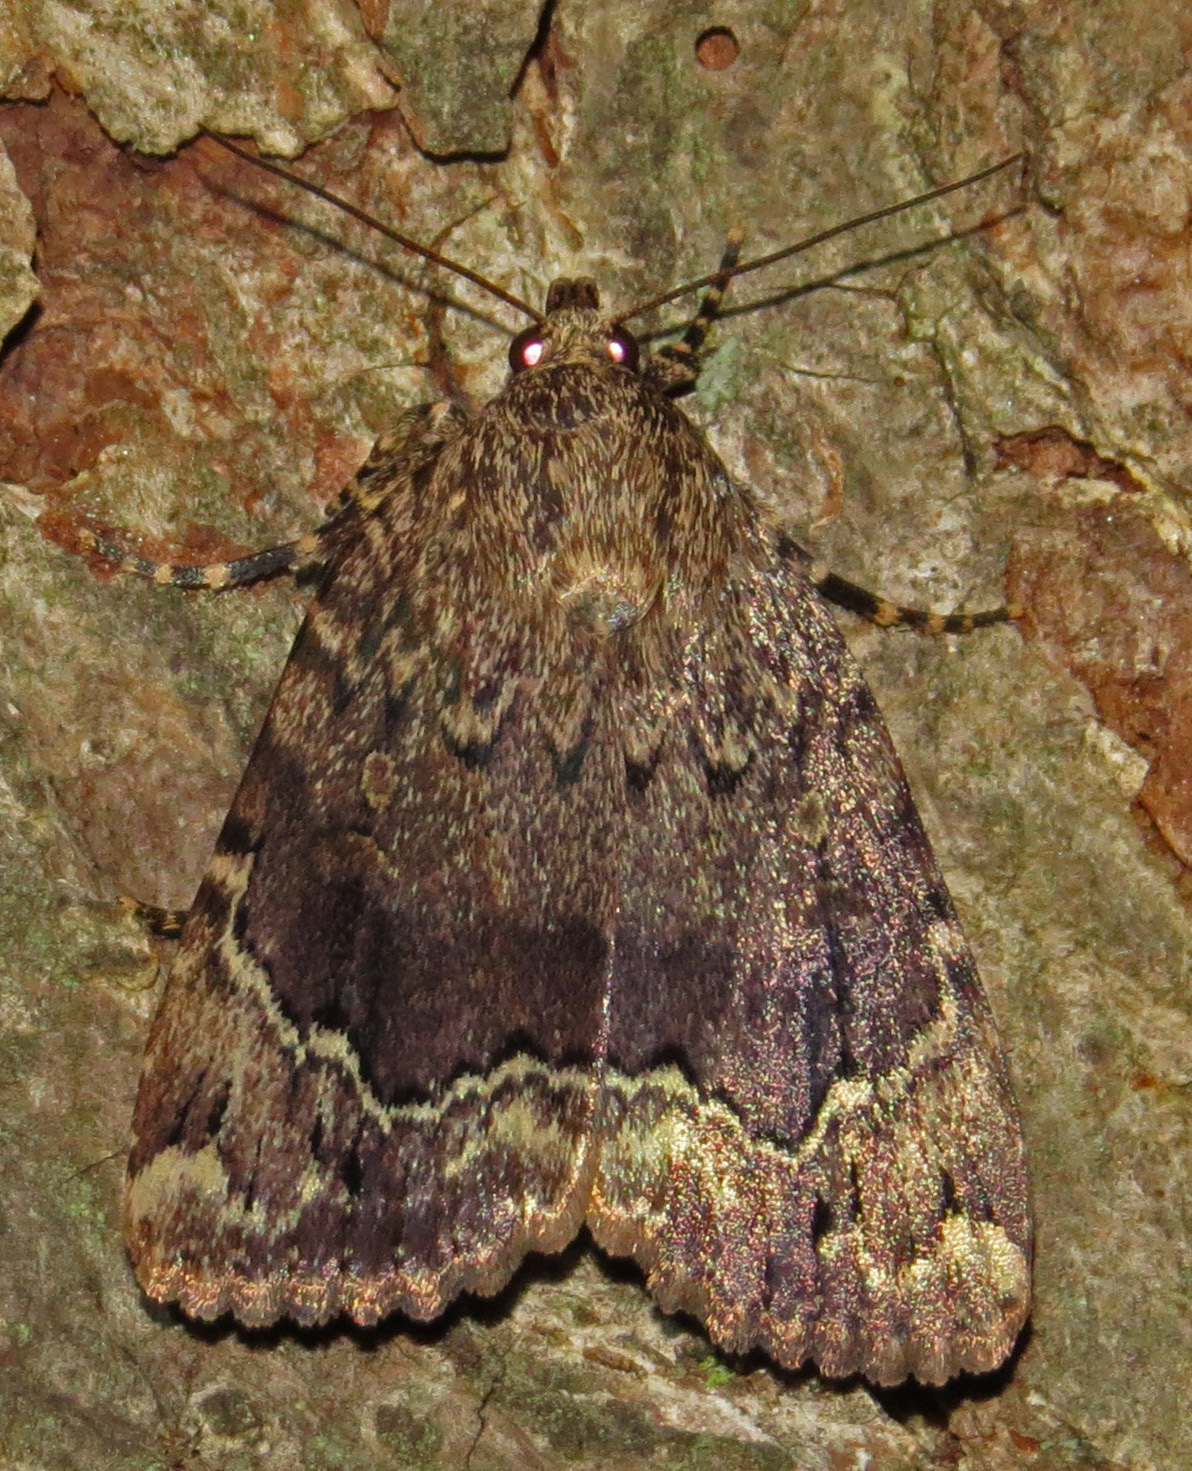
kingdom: Animalia
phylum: Arthropoda
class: Insecta
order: Lepidoptera
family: Noctuidae
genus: Amphipyra
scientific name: Amphipyra pyramidoides
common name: American copper underwing
